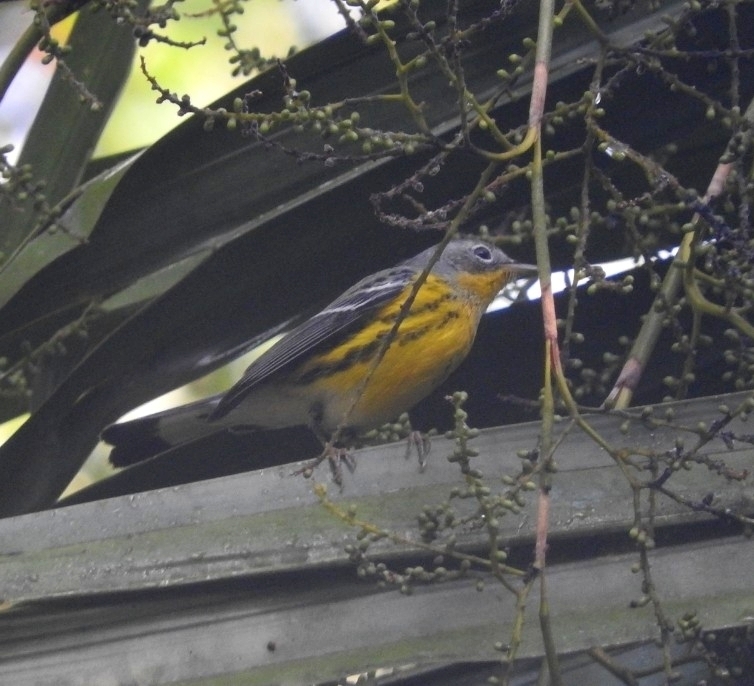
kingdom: Animalia
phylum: Chordata
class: Aves
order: Passeriformes
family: Parulidae
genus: Setophaga
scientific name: Setophaga magnolia
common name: Magnolia warbler
